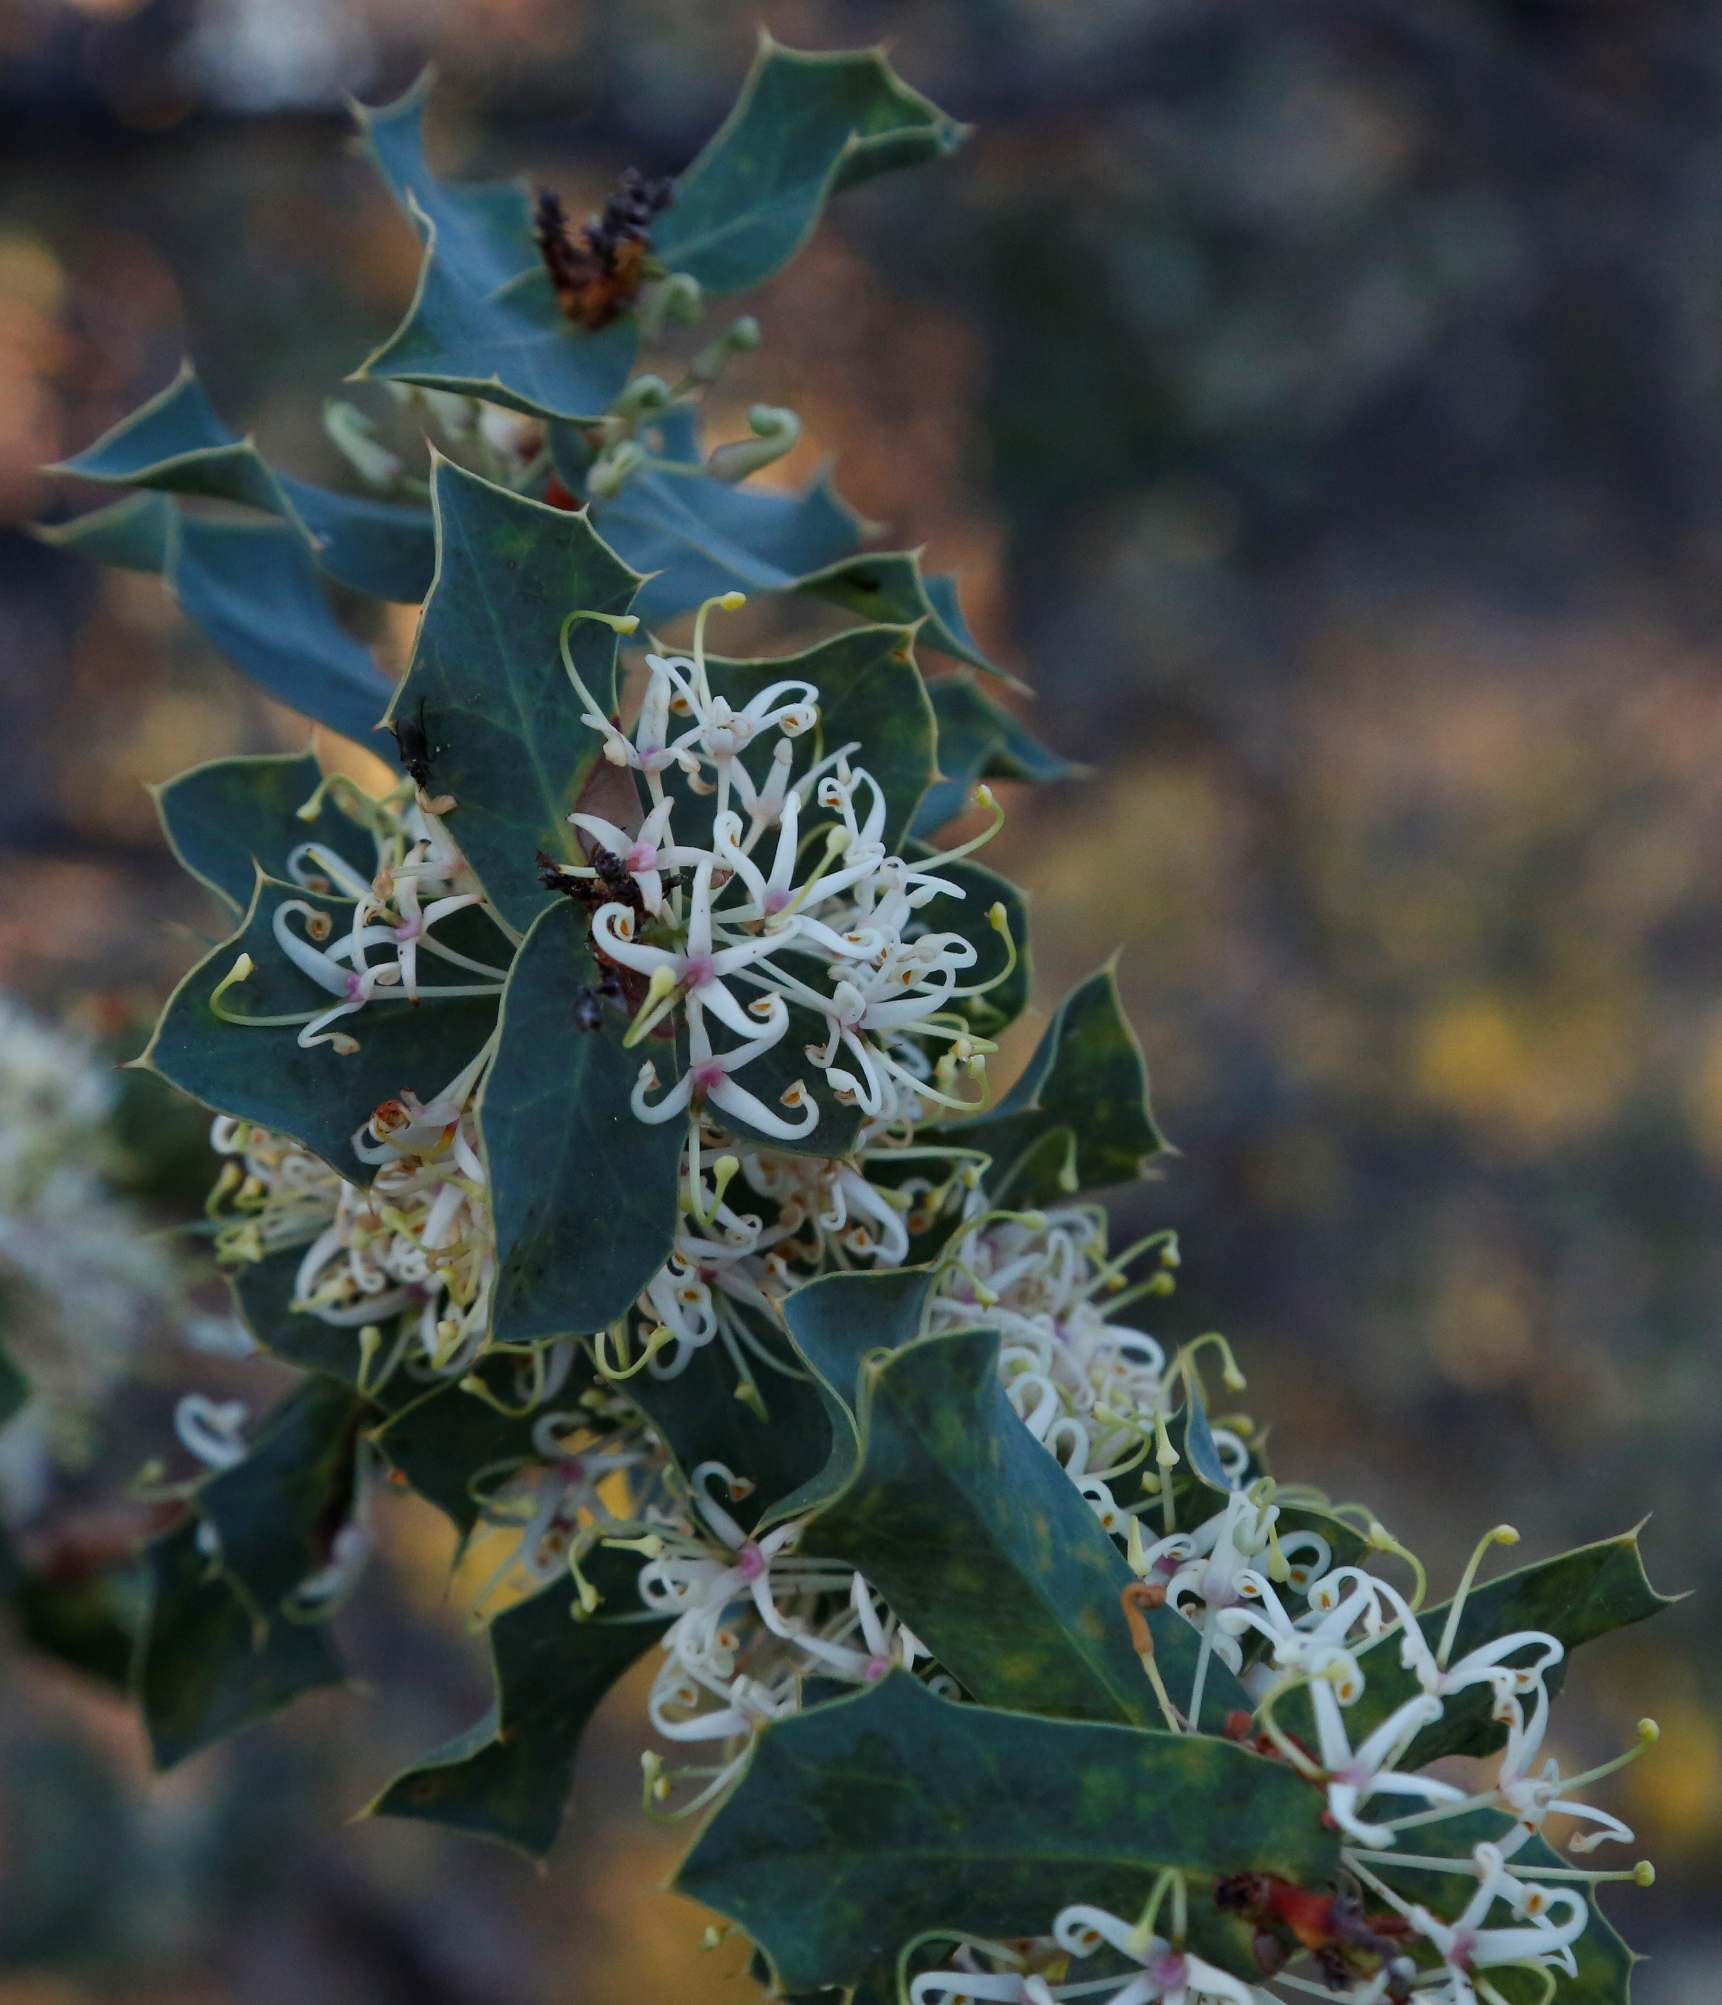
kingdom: Plantae
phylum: Tracheophyta
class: Magnoliopsida
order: Proteales
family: Proteaceae
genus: Hakea
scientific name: Hakea prostrata
